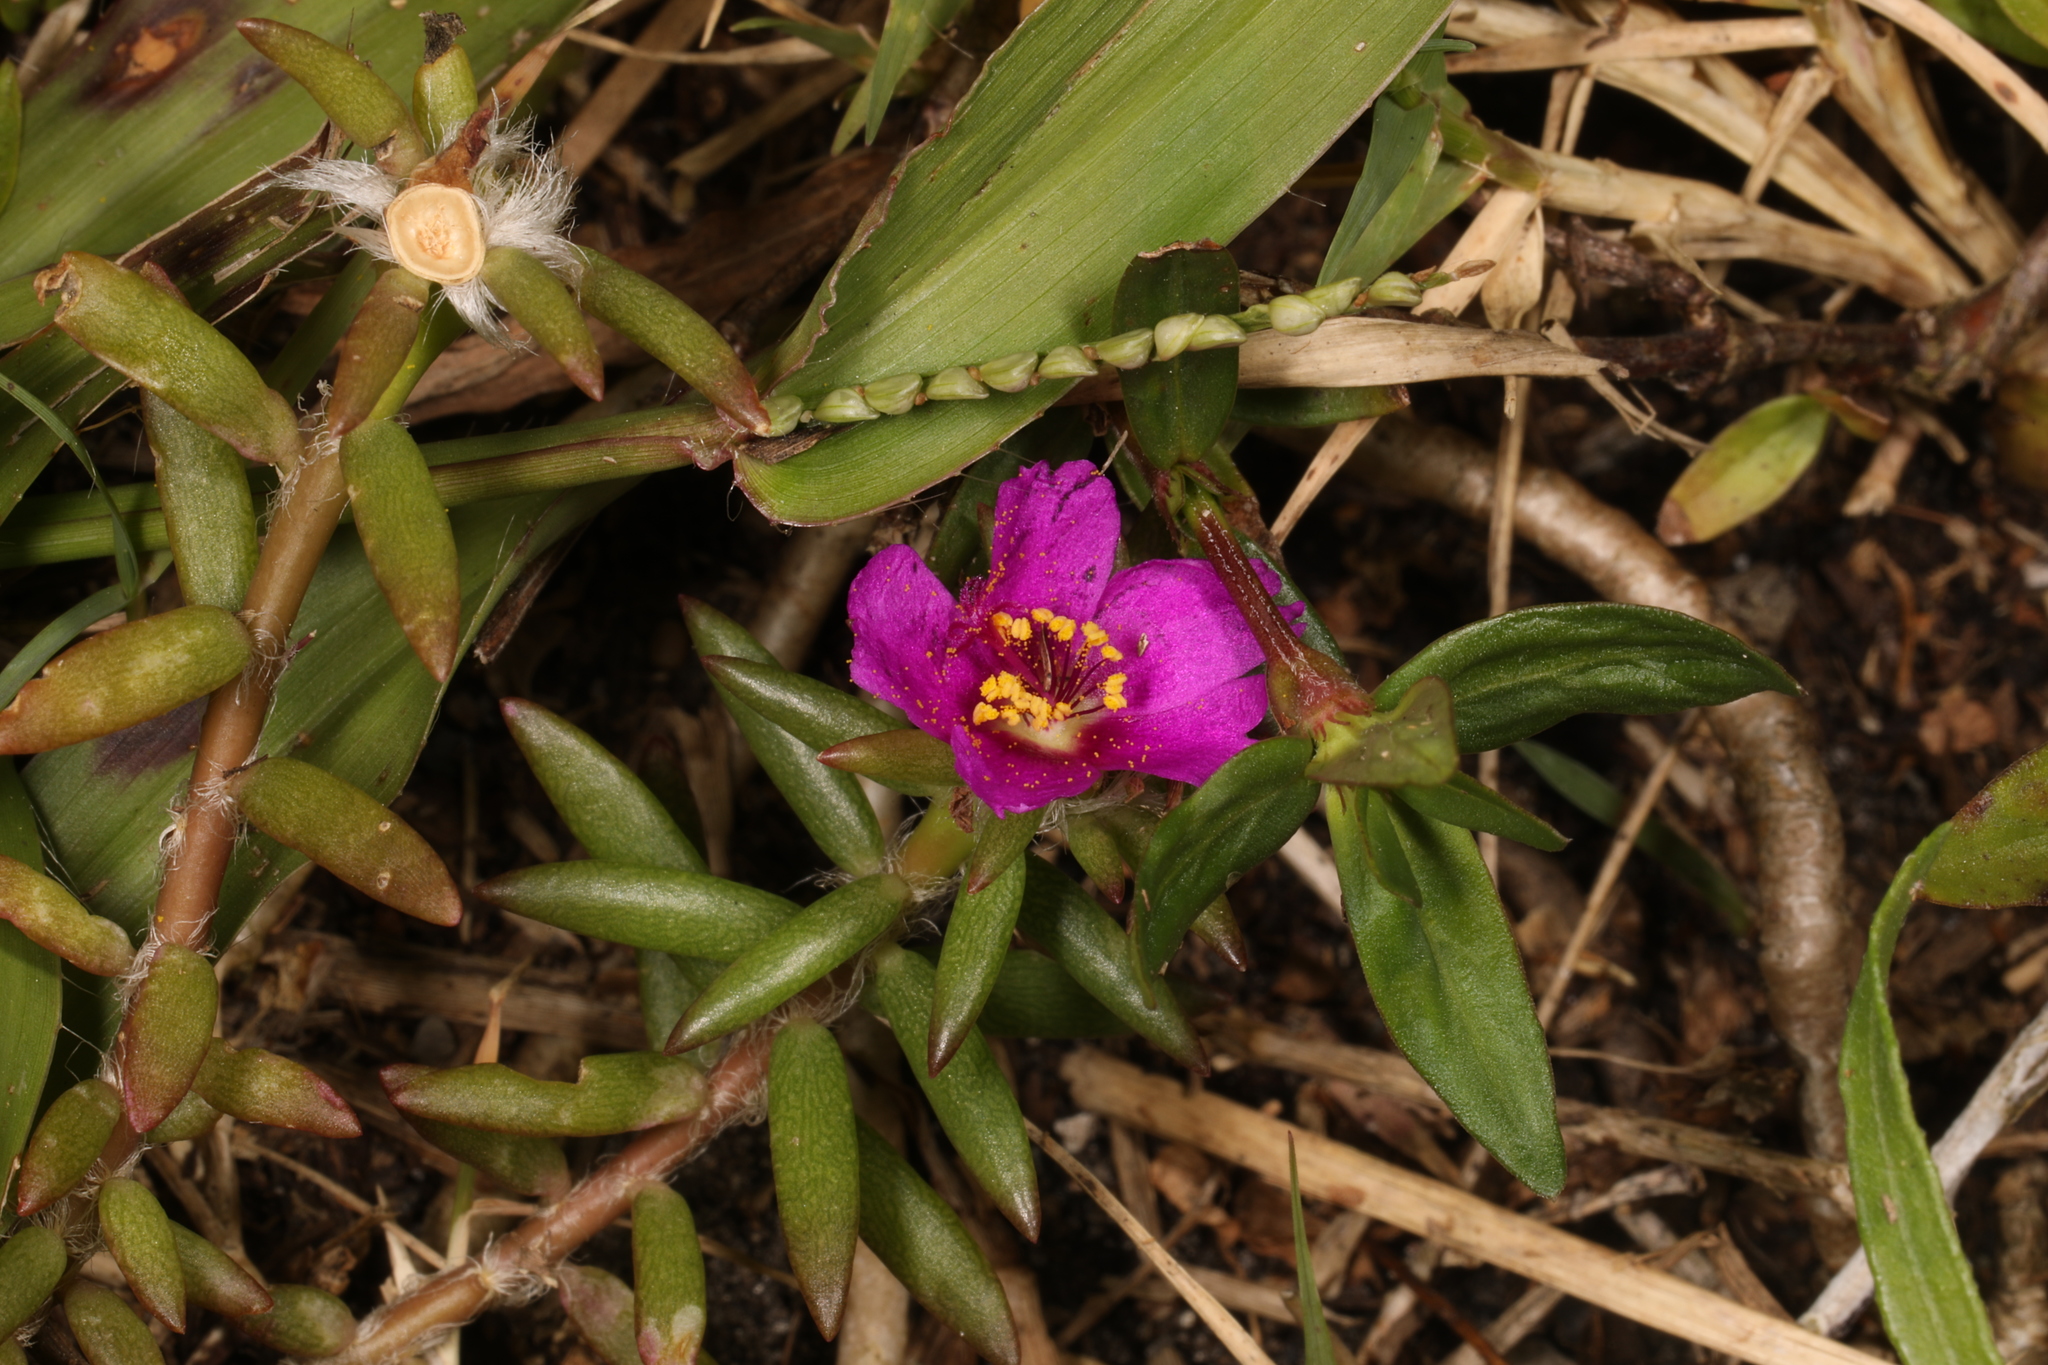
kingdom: Plantae
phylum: Tracheophyta
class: Magnoliopsida
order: Caryophyllales
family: Portulacaceae
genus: Portulaca
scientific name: Portulaca pilosa
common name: Kiss me quick
